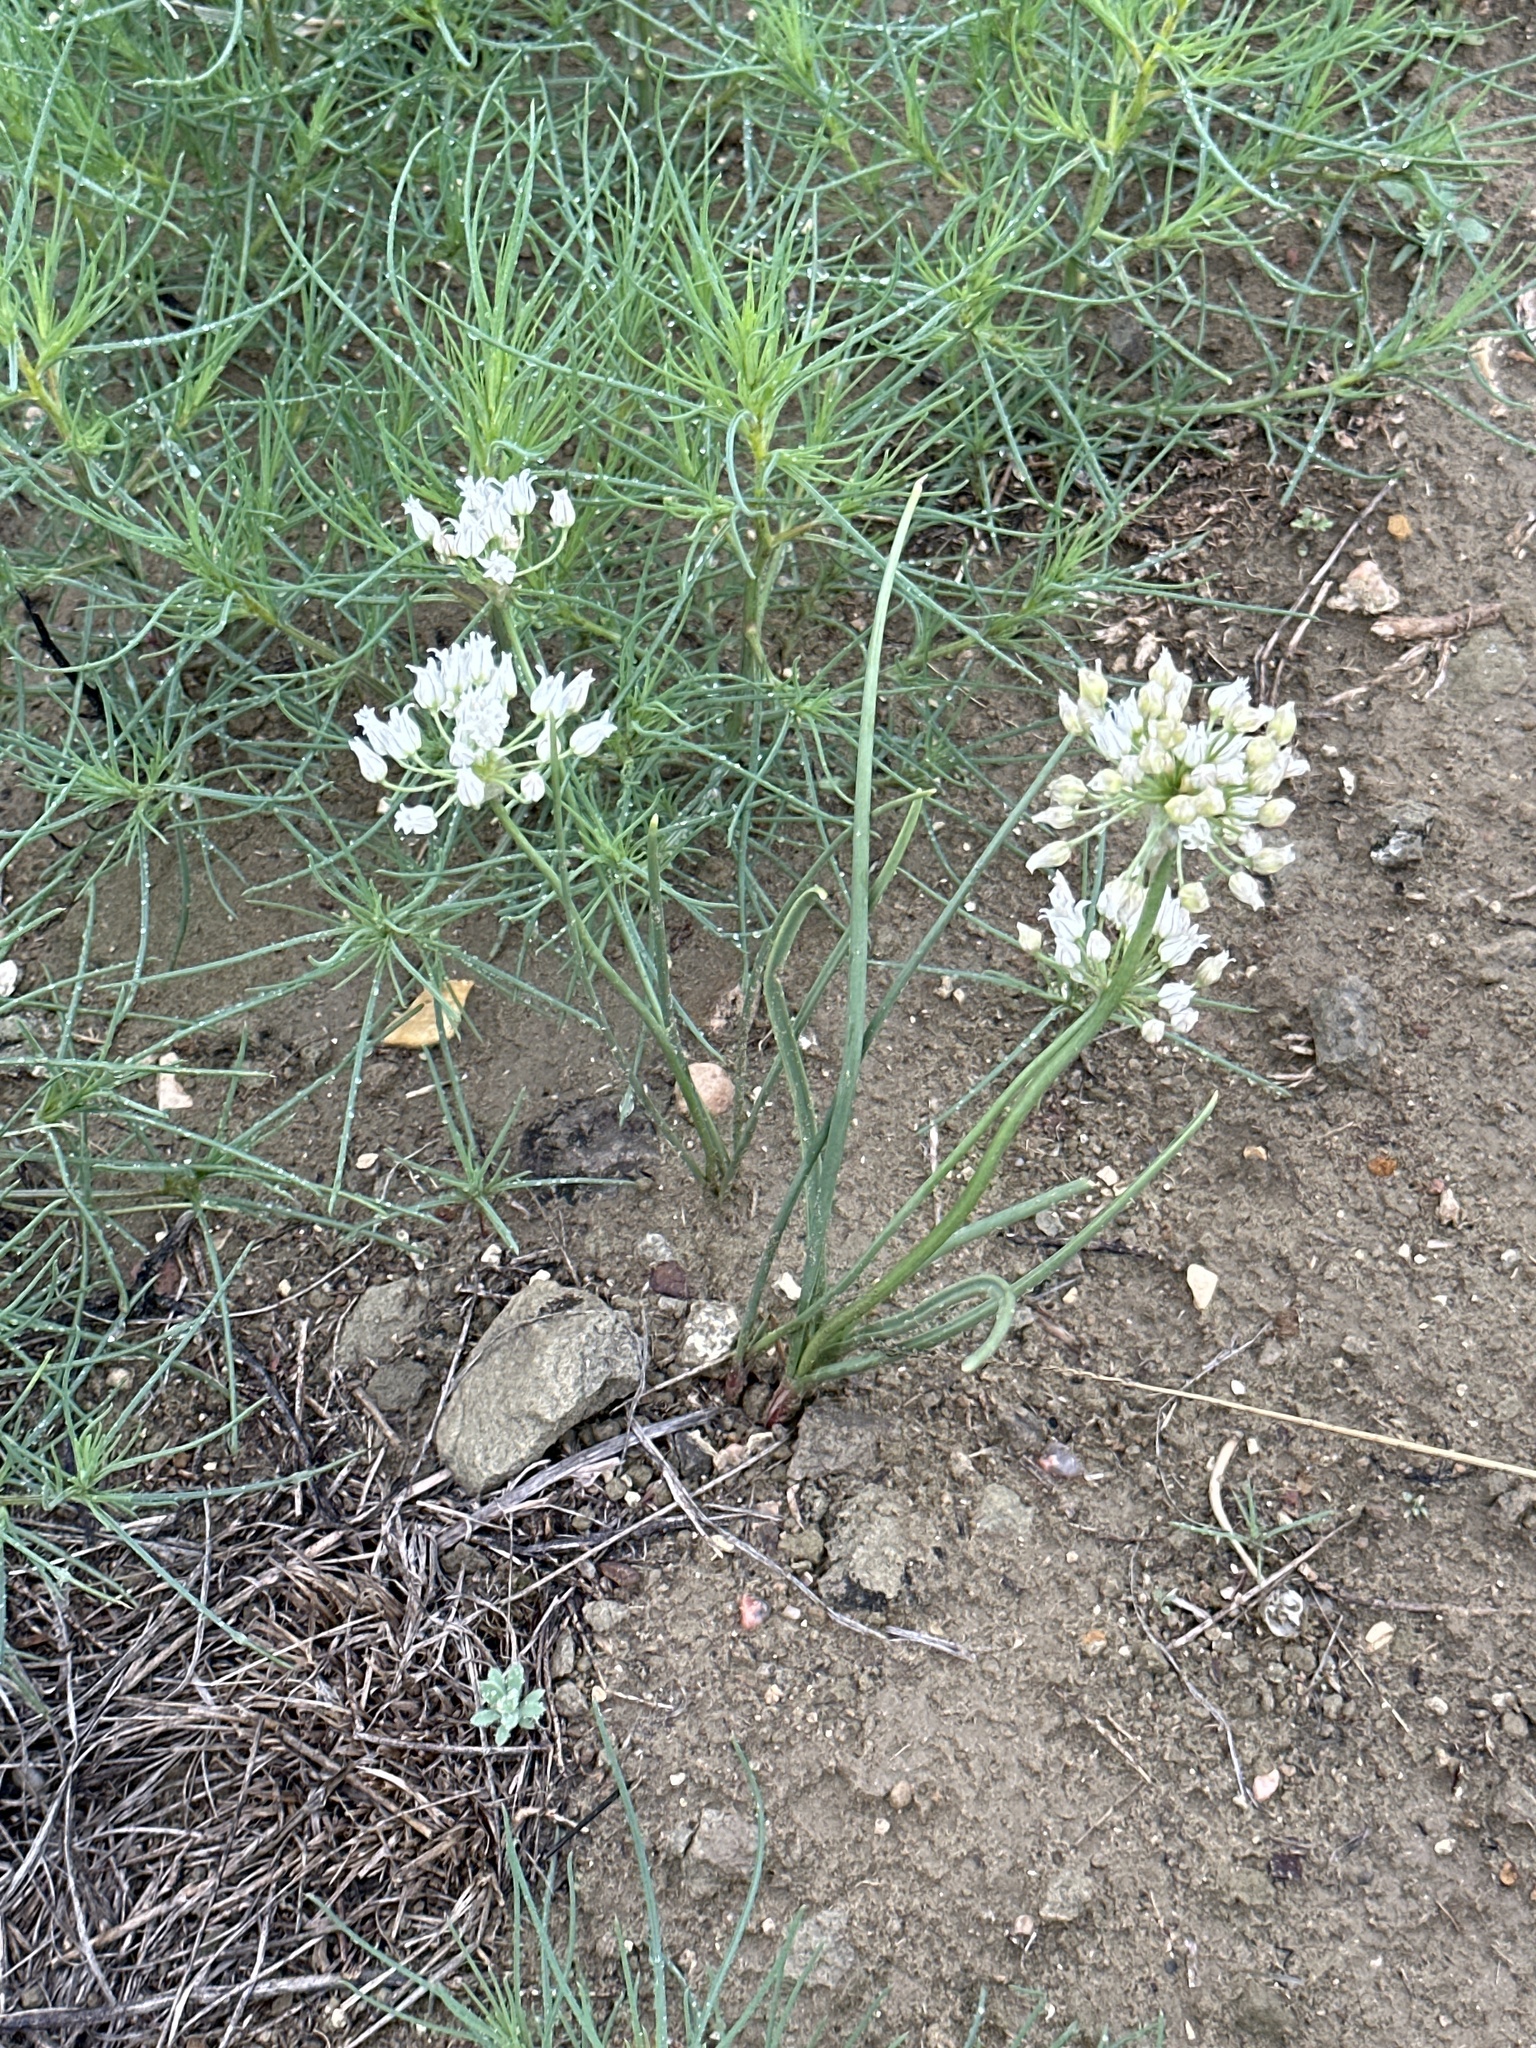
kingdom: Plantae
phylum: Tracheophyta
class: Liliopsida
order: Asparagales
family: Amaryllidaceae
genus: Allium
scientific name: Allium textile
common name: Prairie onion
